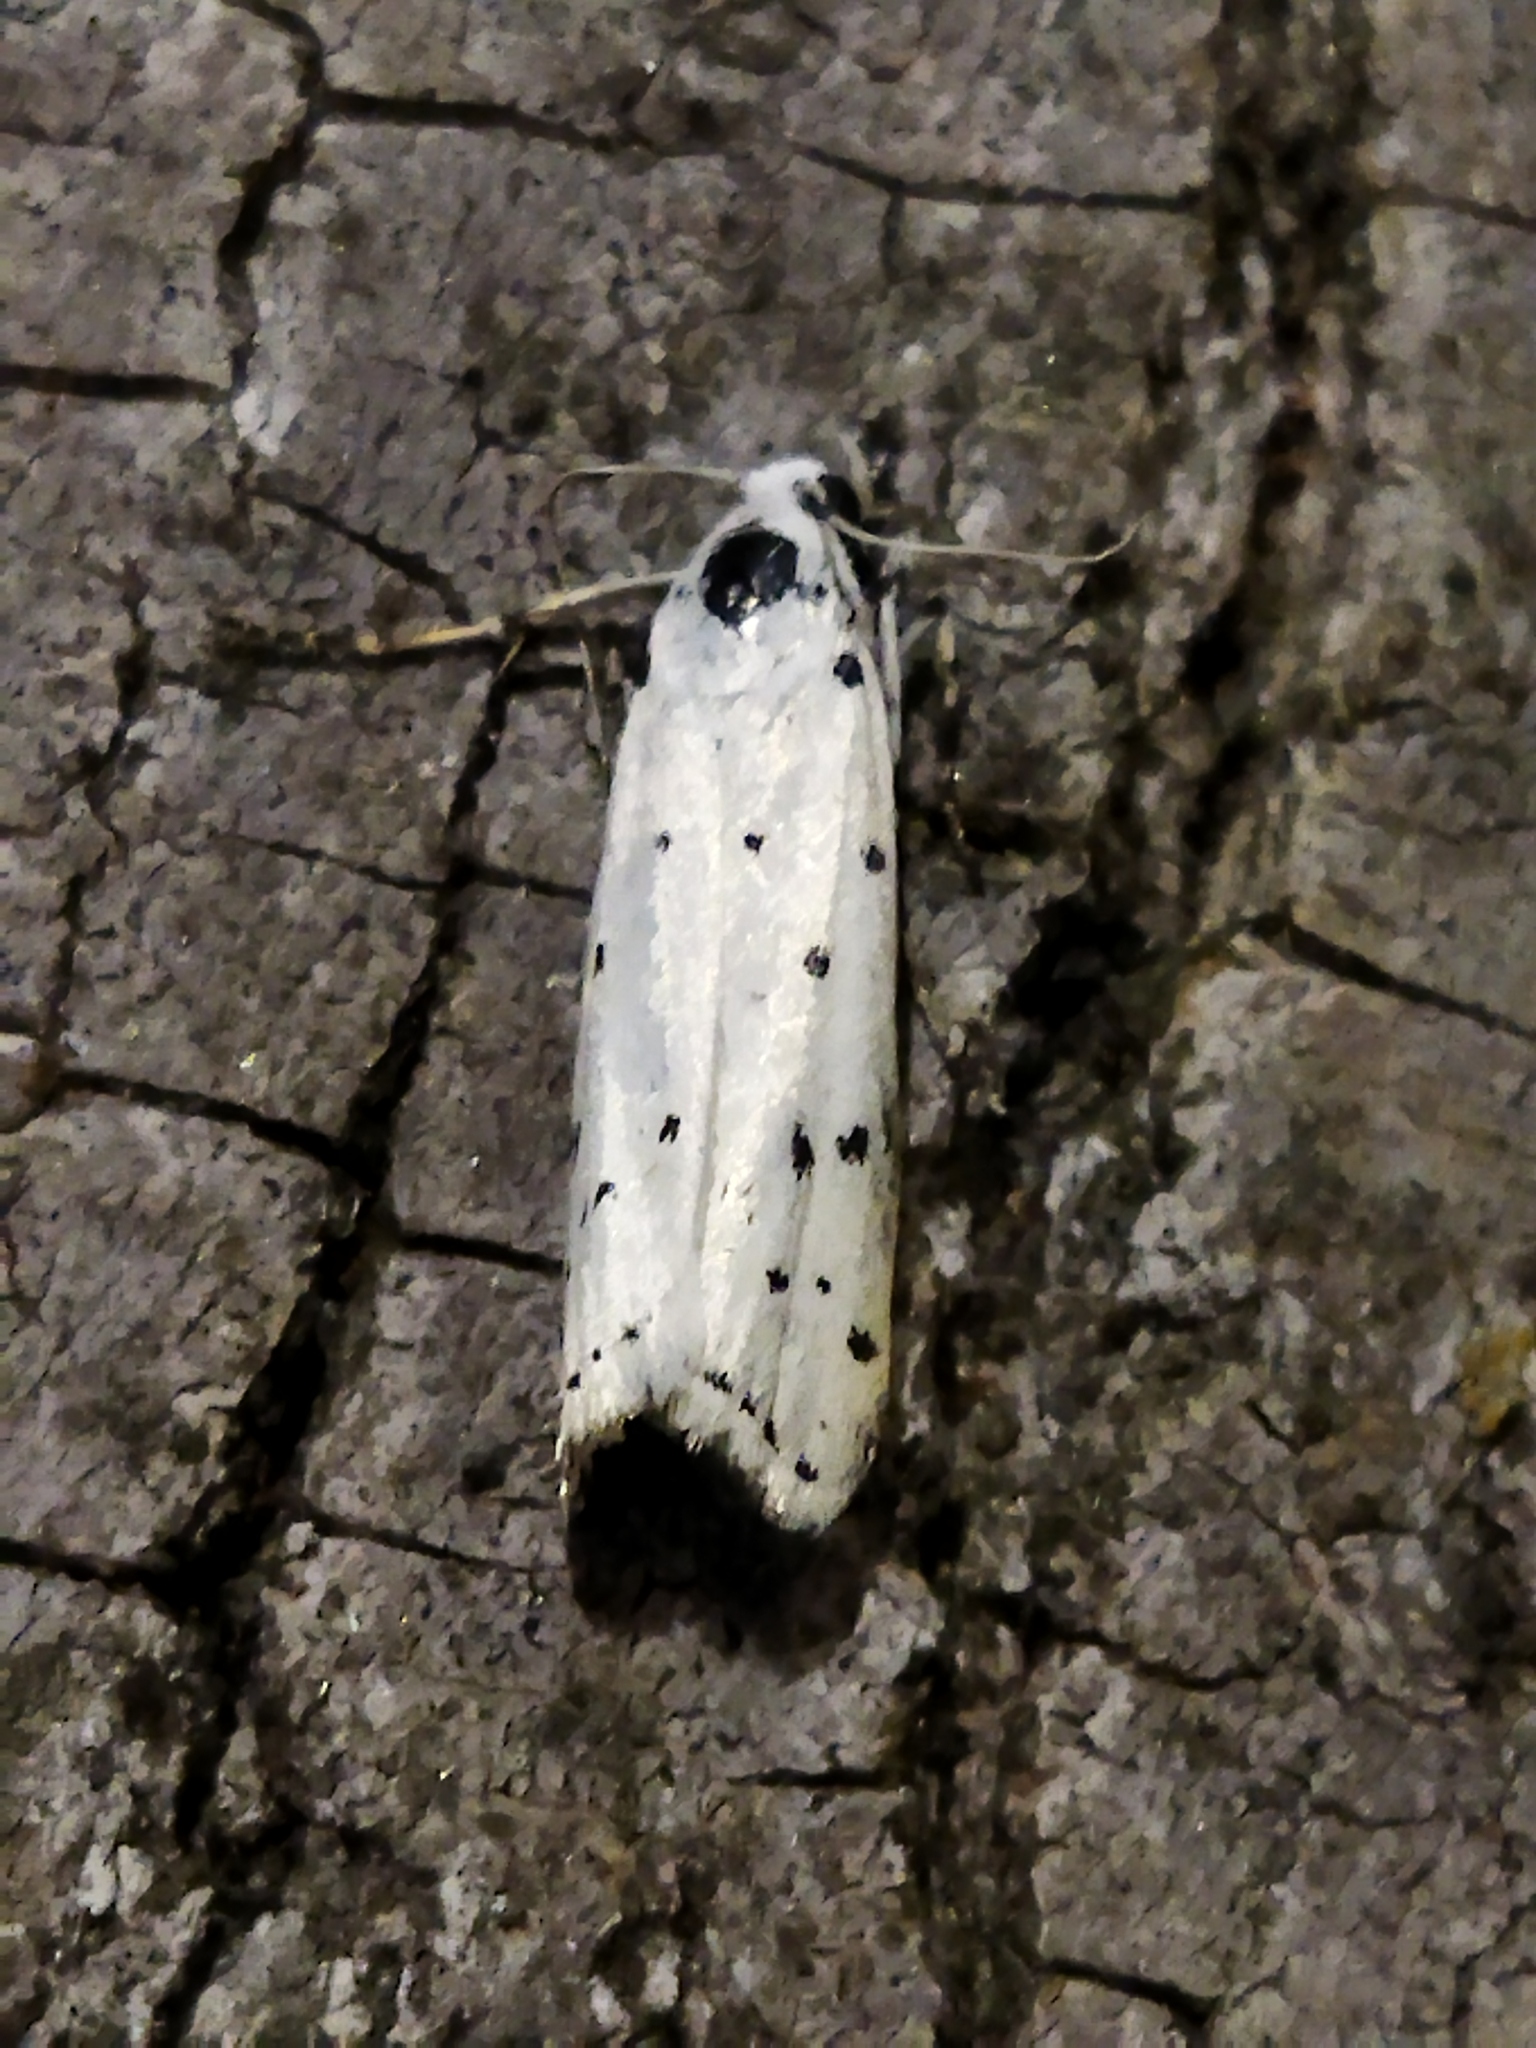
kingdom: Animalia
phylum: Arthropoda
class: Insecta
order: Lepidoptera
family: Pyralidae
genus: Myelois
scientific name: Myelois circumvoluta
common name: Thistle ermine
